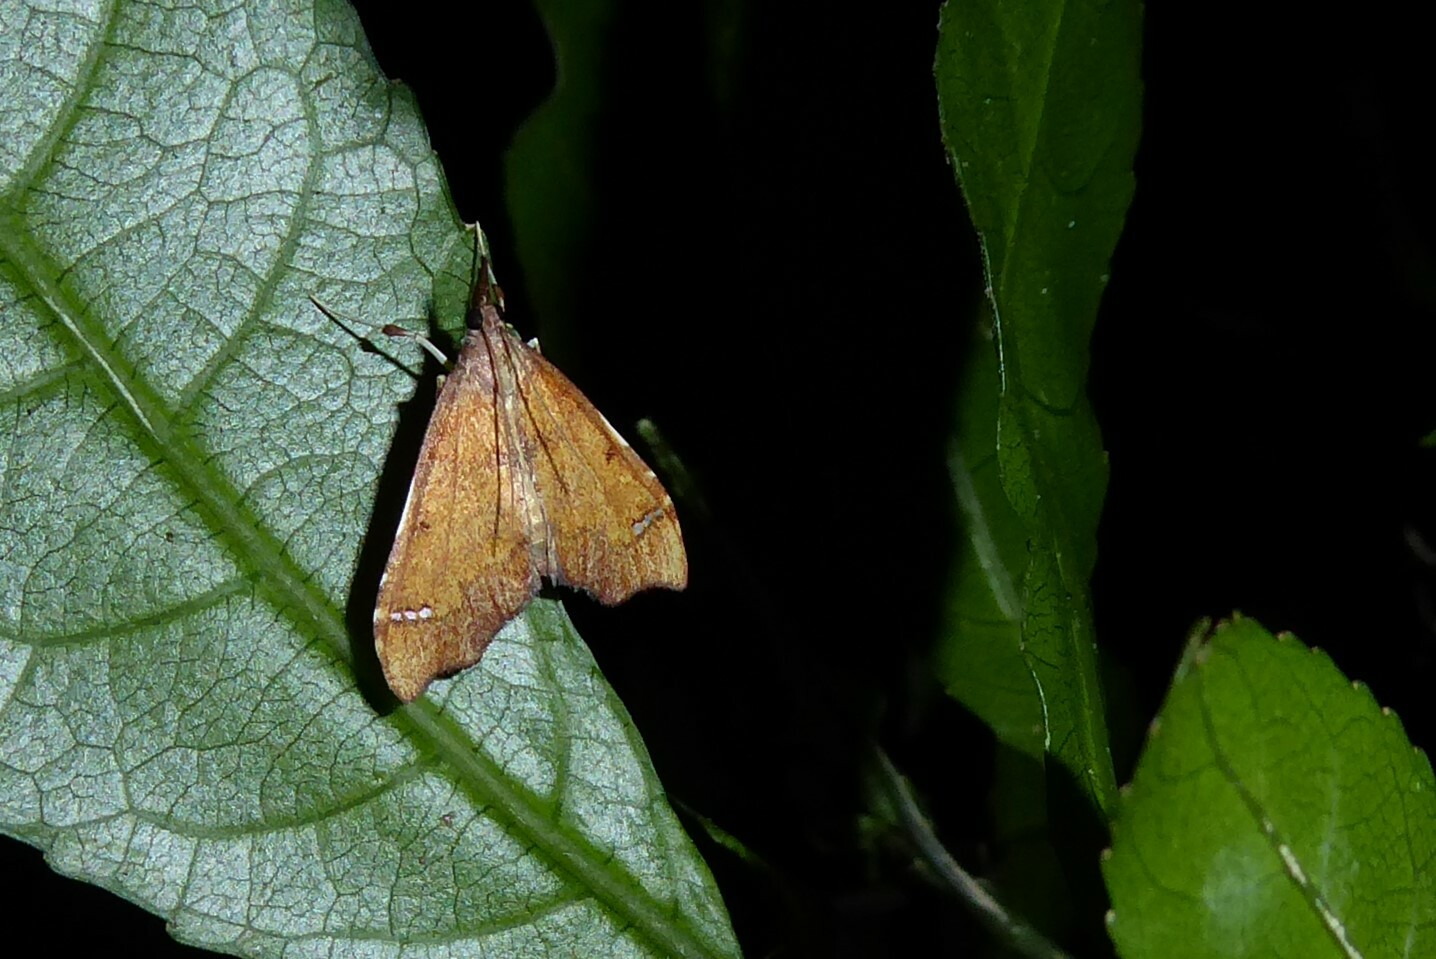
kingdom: Animalia
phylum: Arthropoda
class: Insecta
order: Lepidoptera
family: Crambidae
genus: Deana
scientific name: Deana hybreasalis
